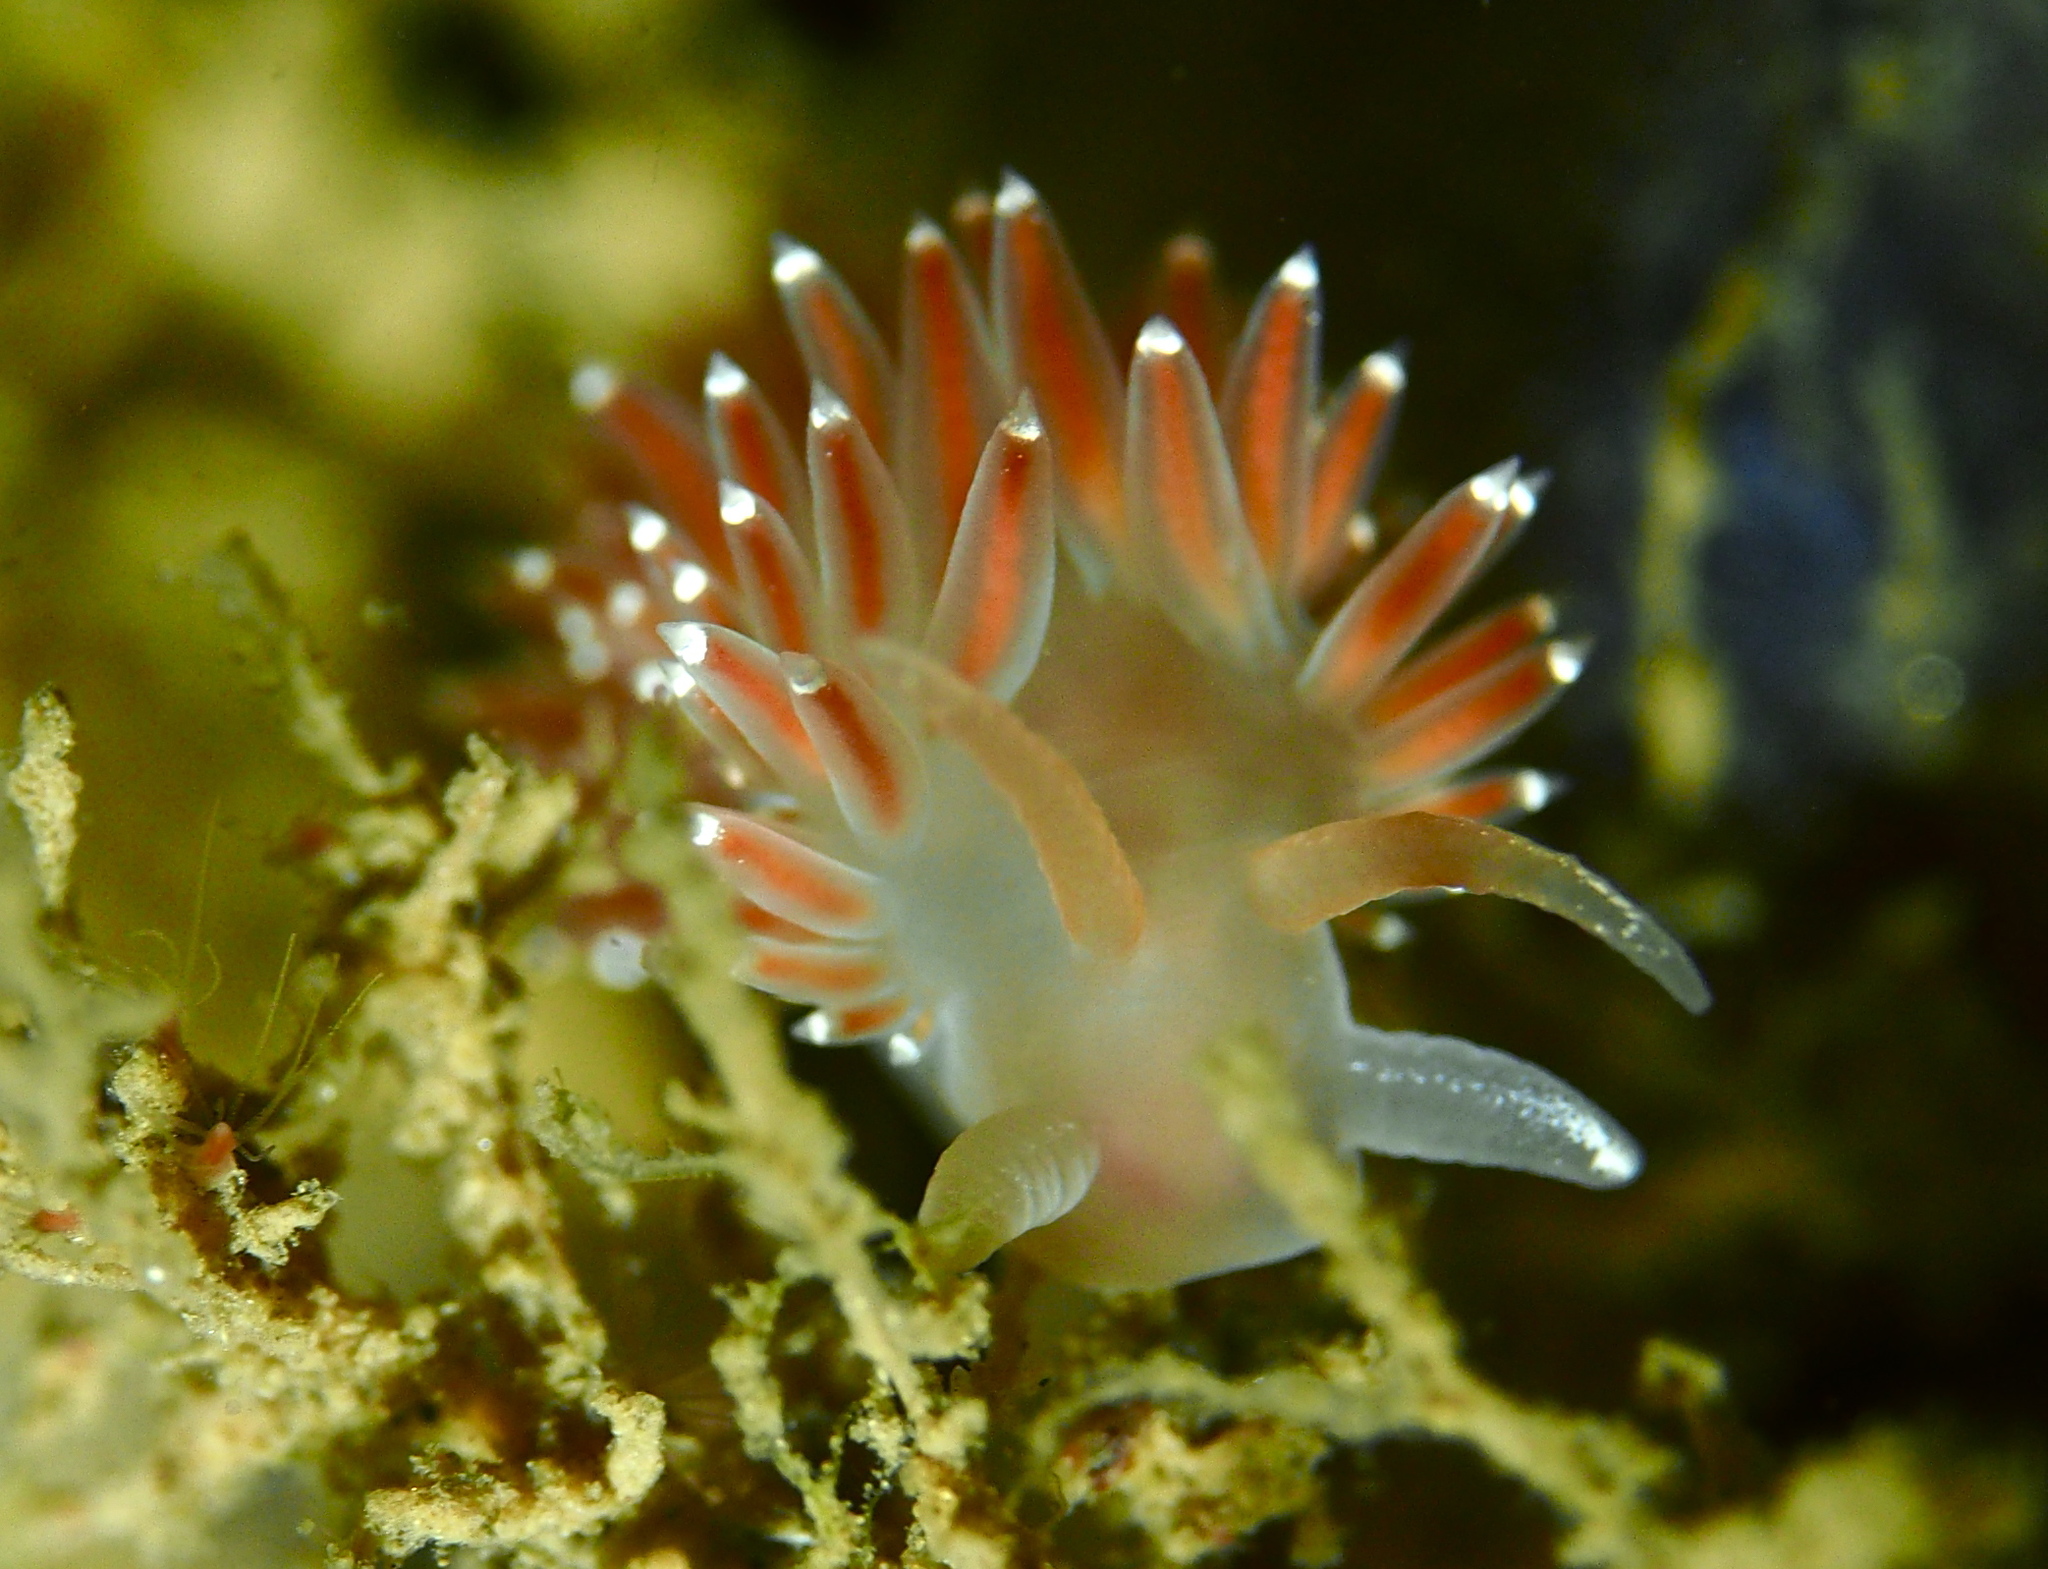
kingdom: Animalia
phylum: Mollusca
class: Gastropoda
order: Nudibranchia
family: Coryphellidae
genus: Coryphella
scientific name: Coryphella verrucosa
